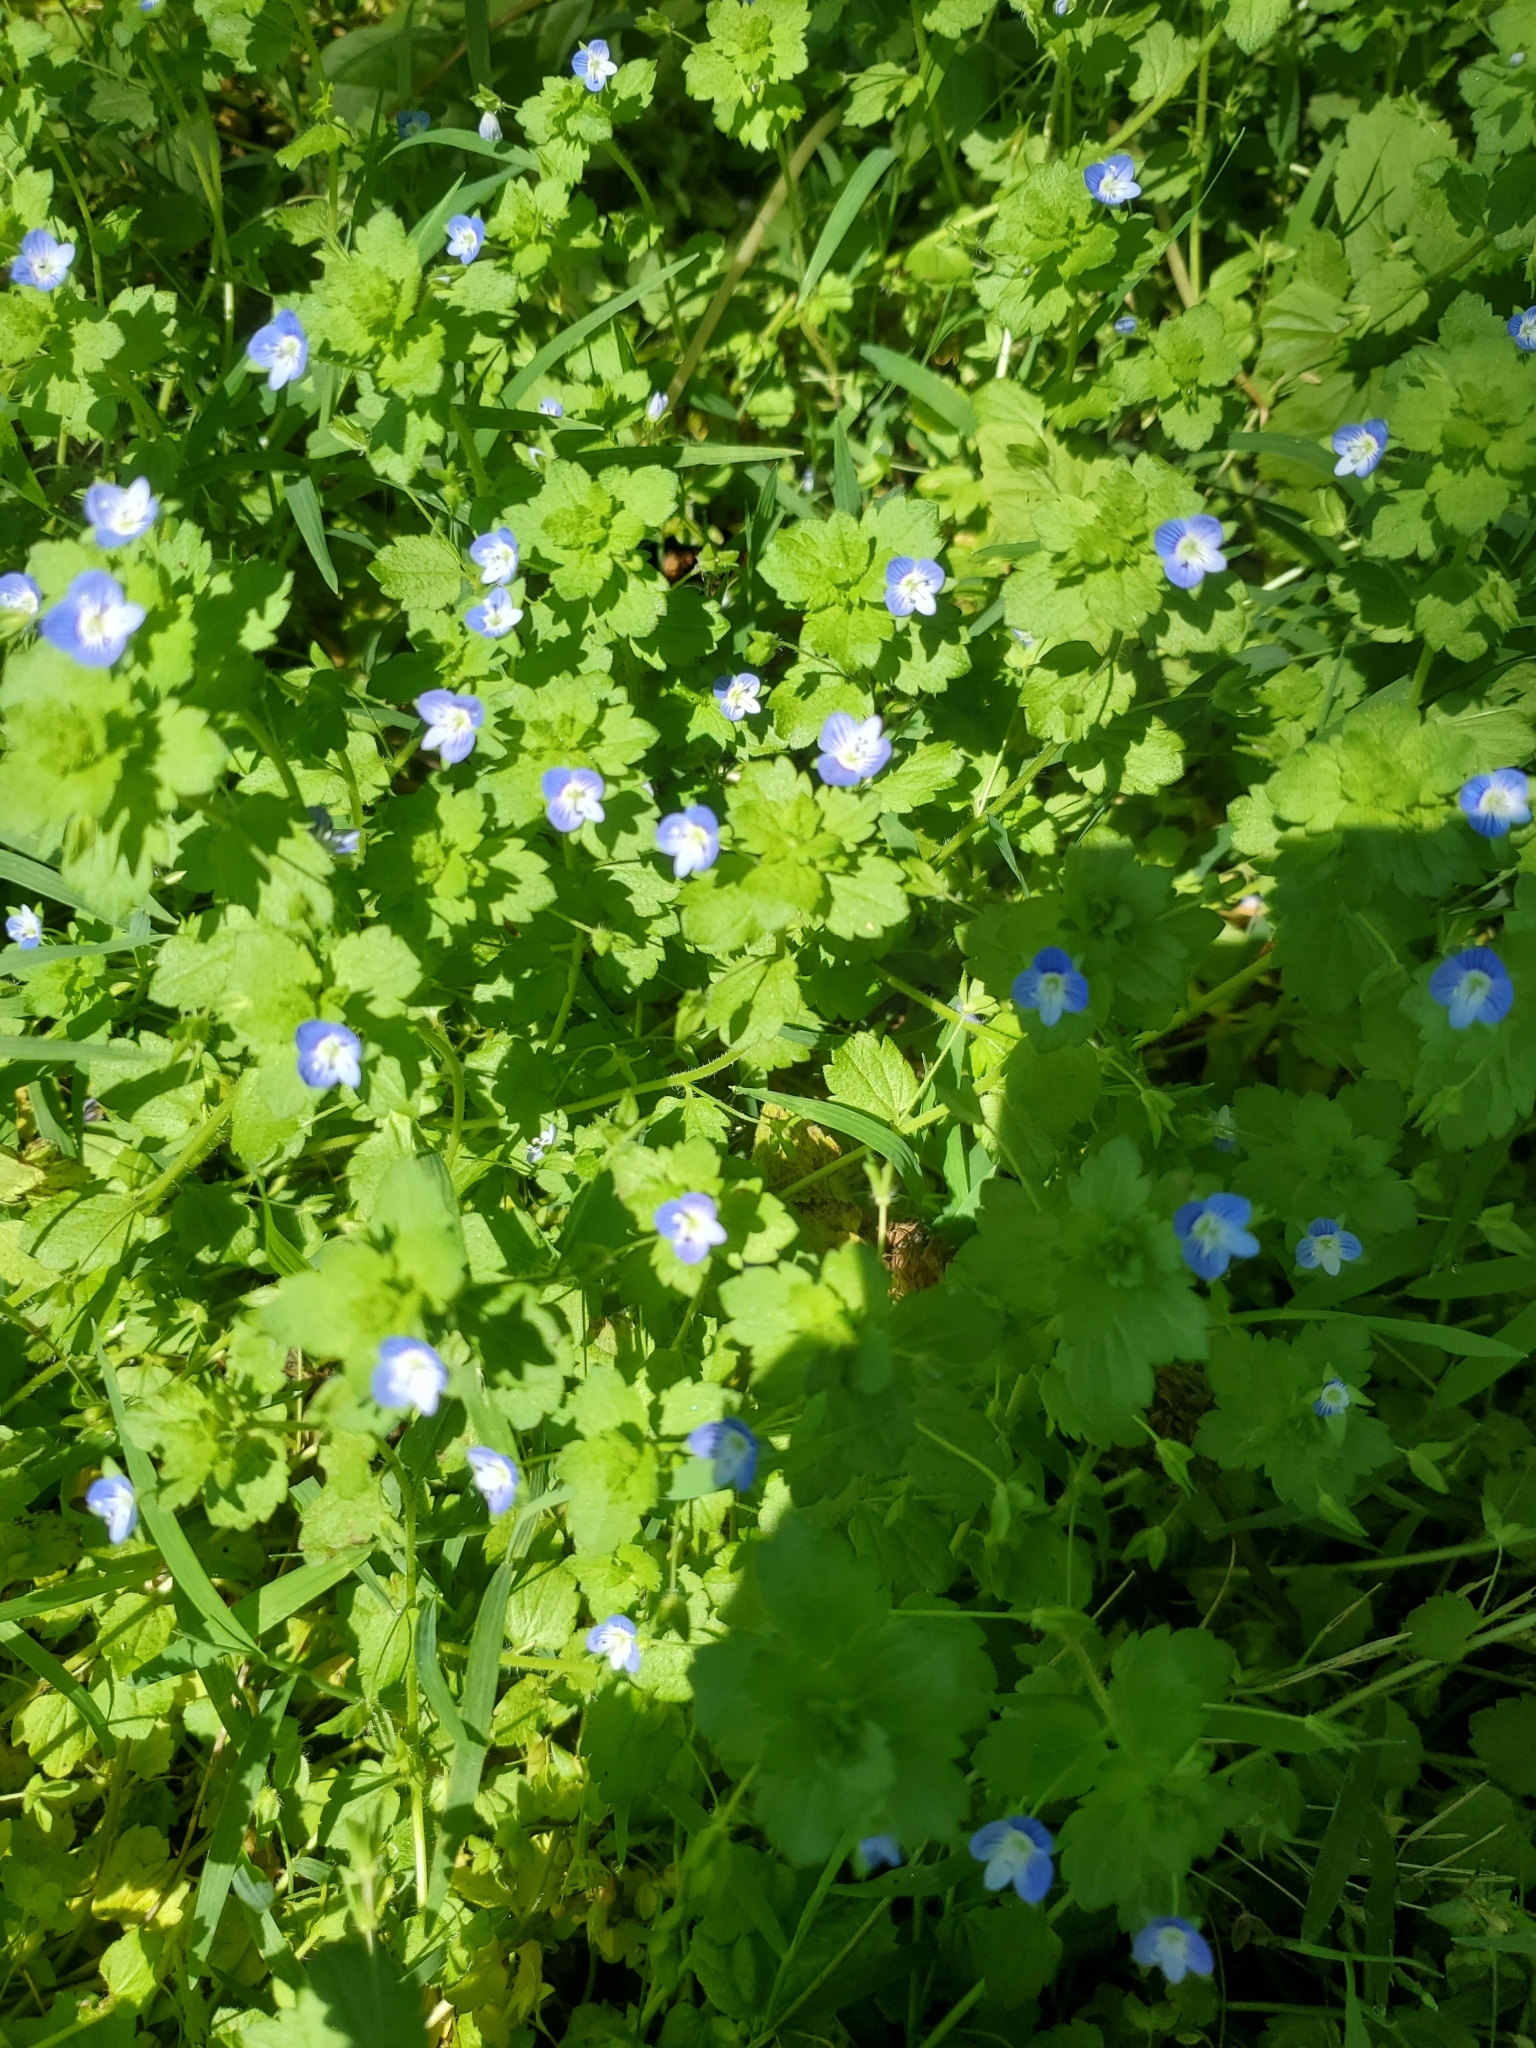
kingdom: Plantae
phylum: Tracheophyta
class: Magnoliopsida
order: Lamiales
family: Plantaginaceae
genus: Veronica
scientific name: Veronica persica
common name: Common field-speedwell
